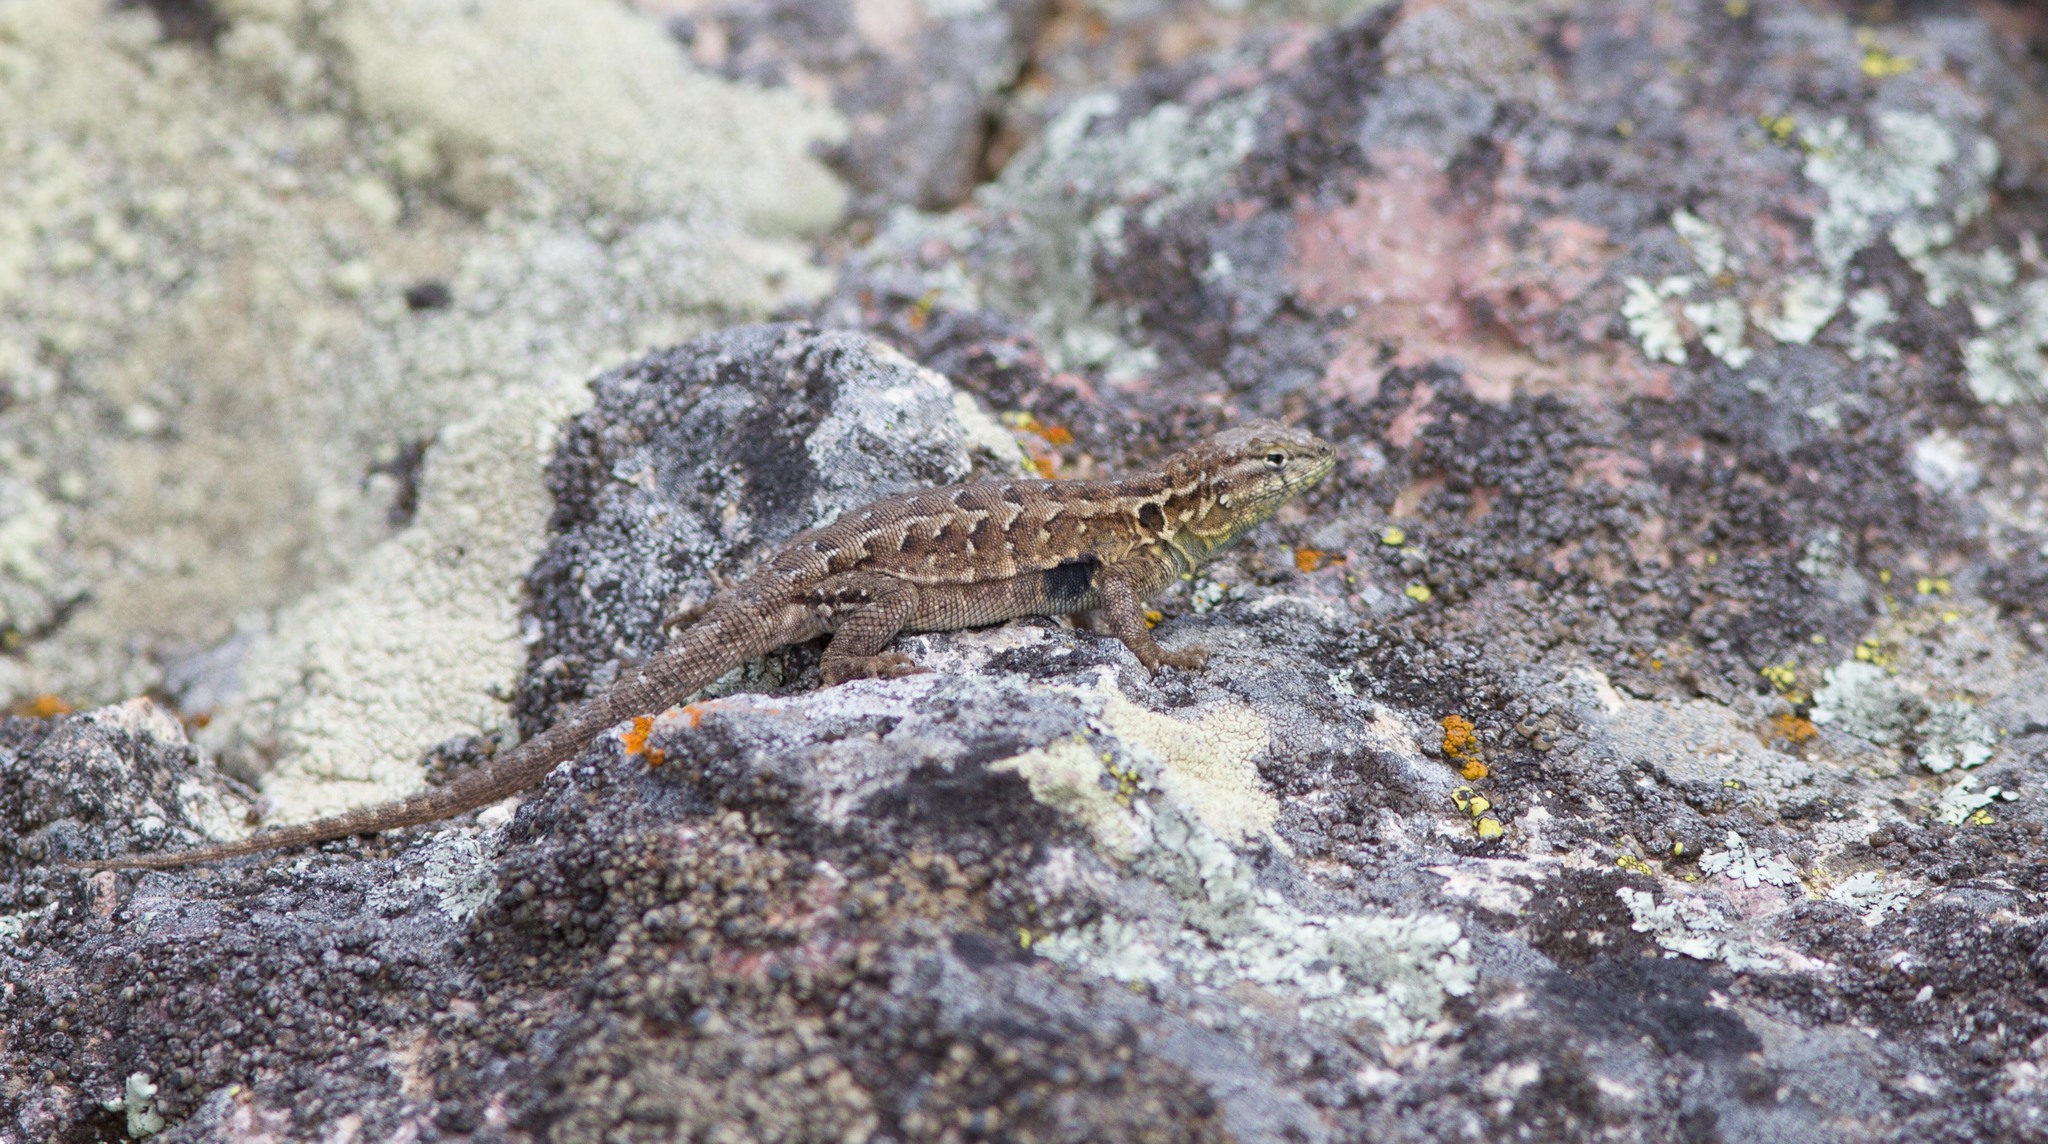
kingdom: Animalia
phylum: Chordata
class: Squamata
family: Phrynosomatidae
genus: Uta
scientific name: Uta stansburiana
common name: Side-blotched lizard
